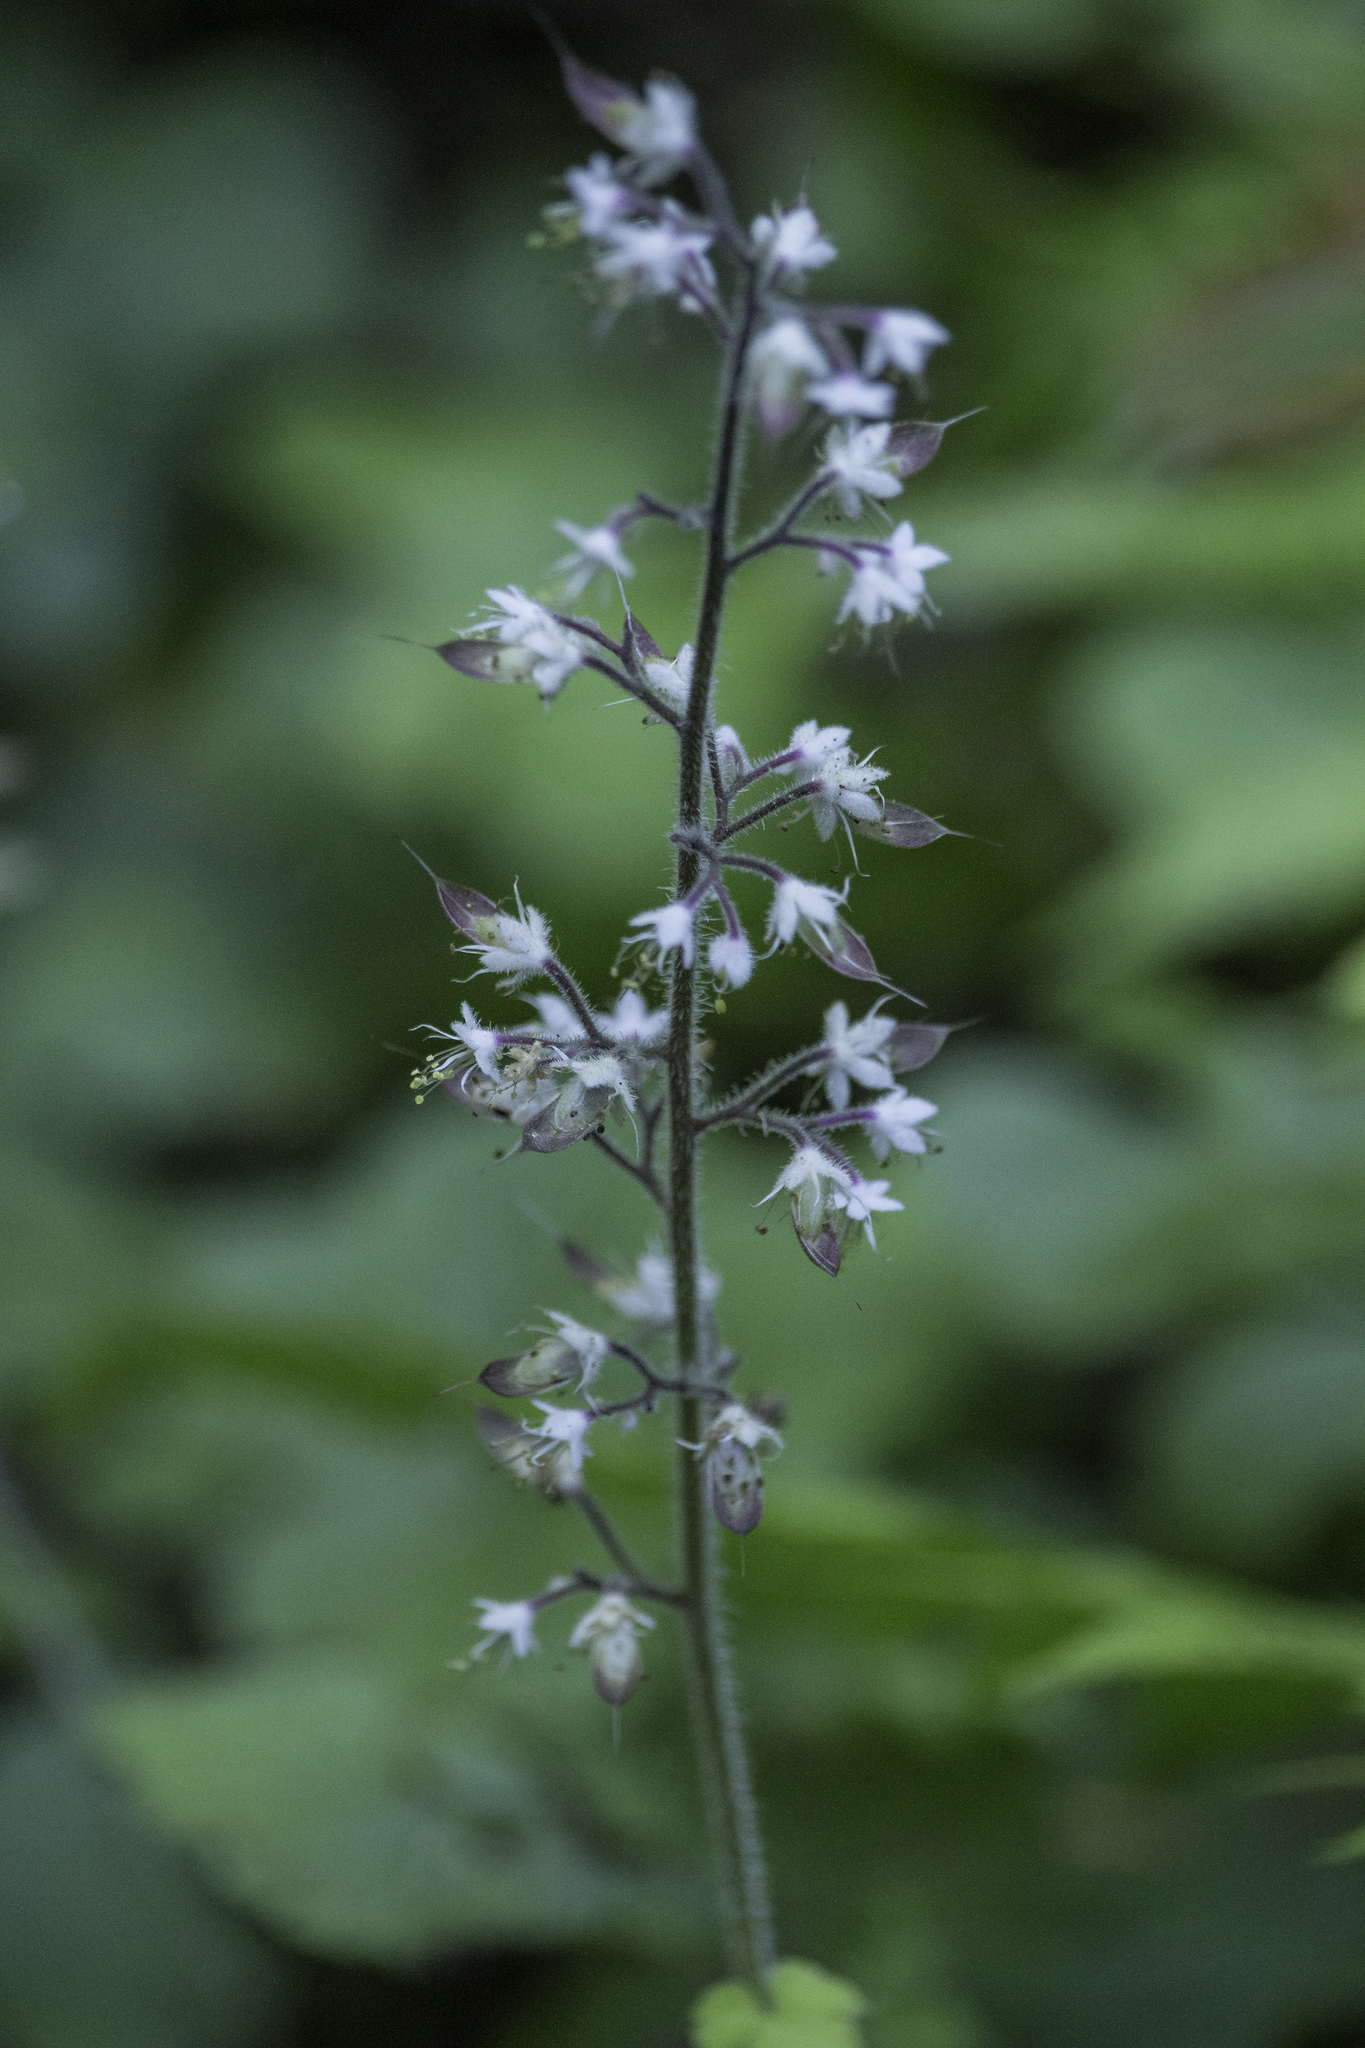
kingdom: Plantae
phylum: Tracheophyta
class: Magnoliopsida
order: Saxifragales
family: Saxifragaceae
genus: Tiarella
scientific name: Tiarella trifoliata
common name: Sugar-scoop
